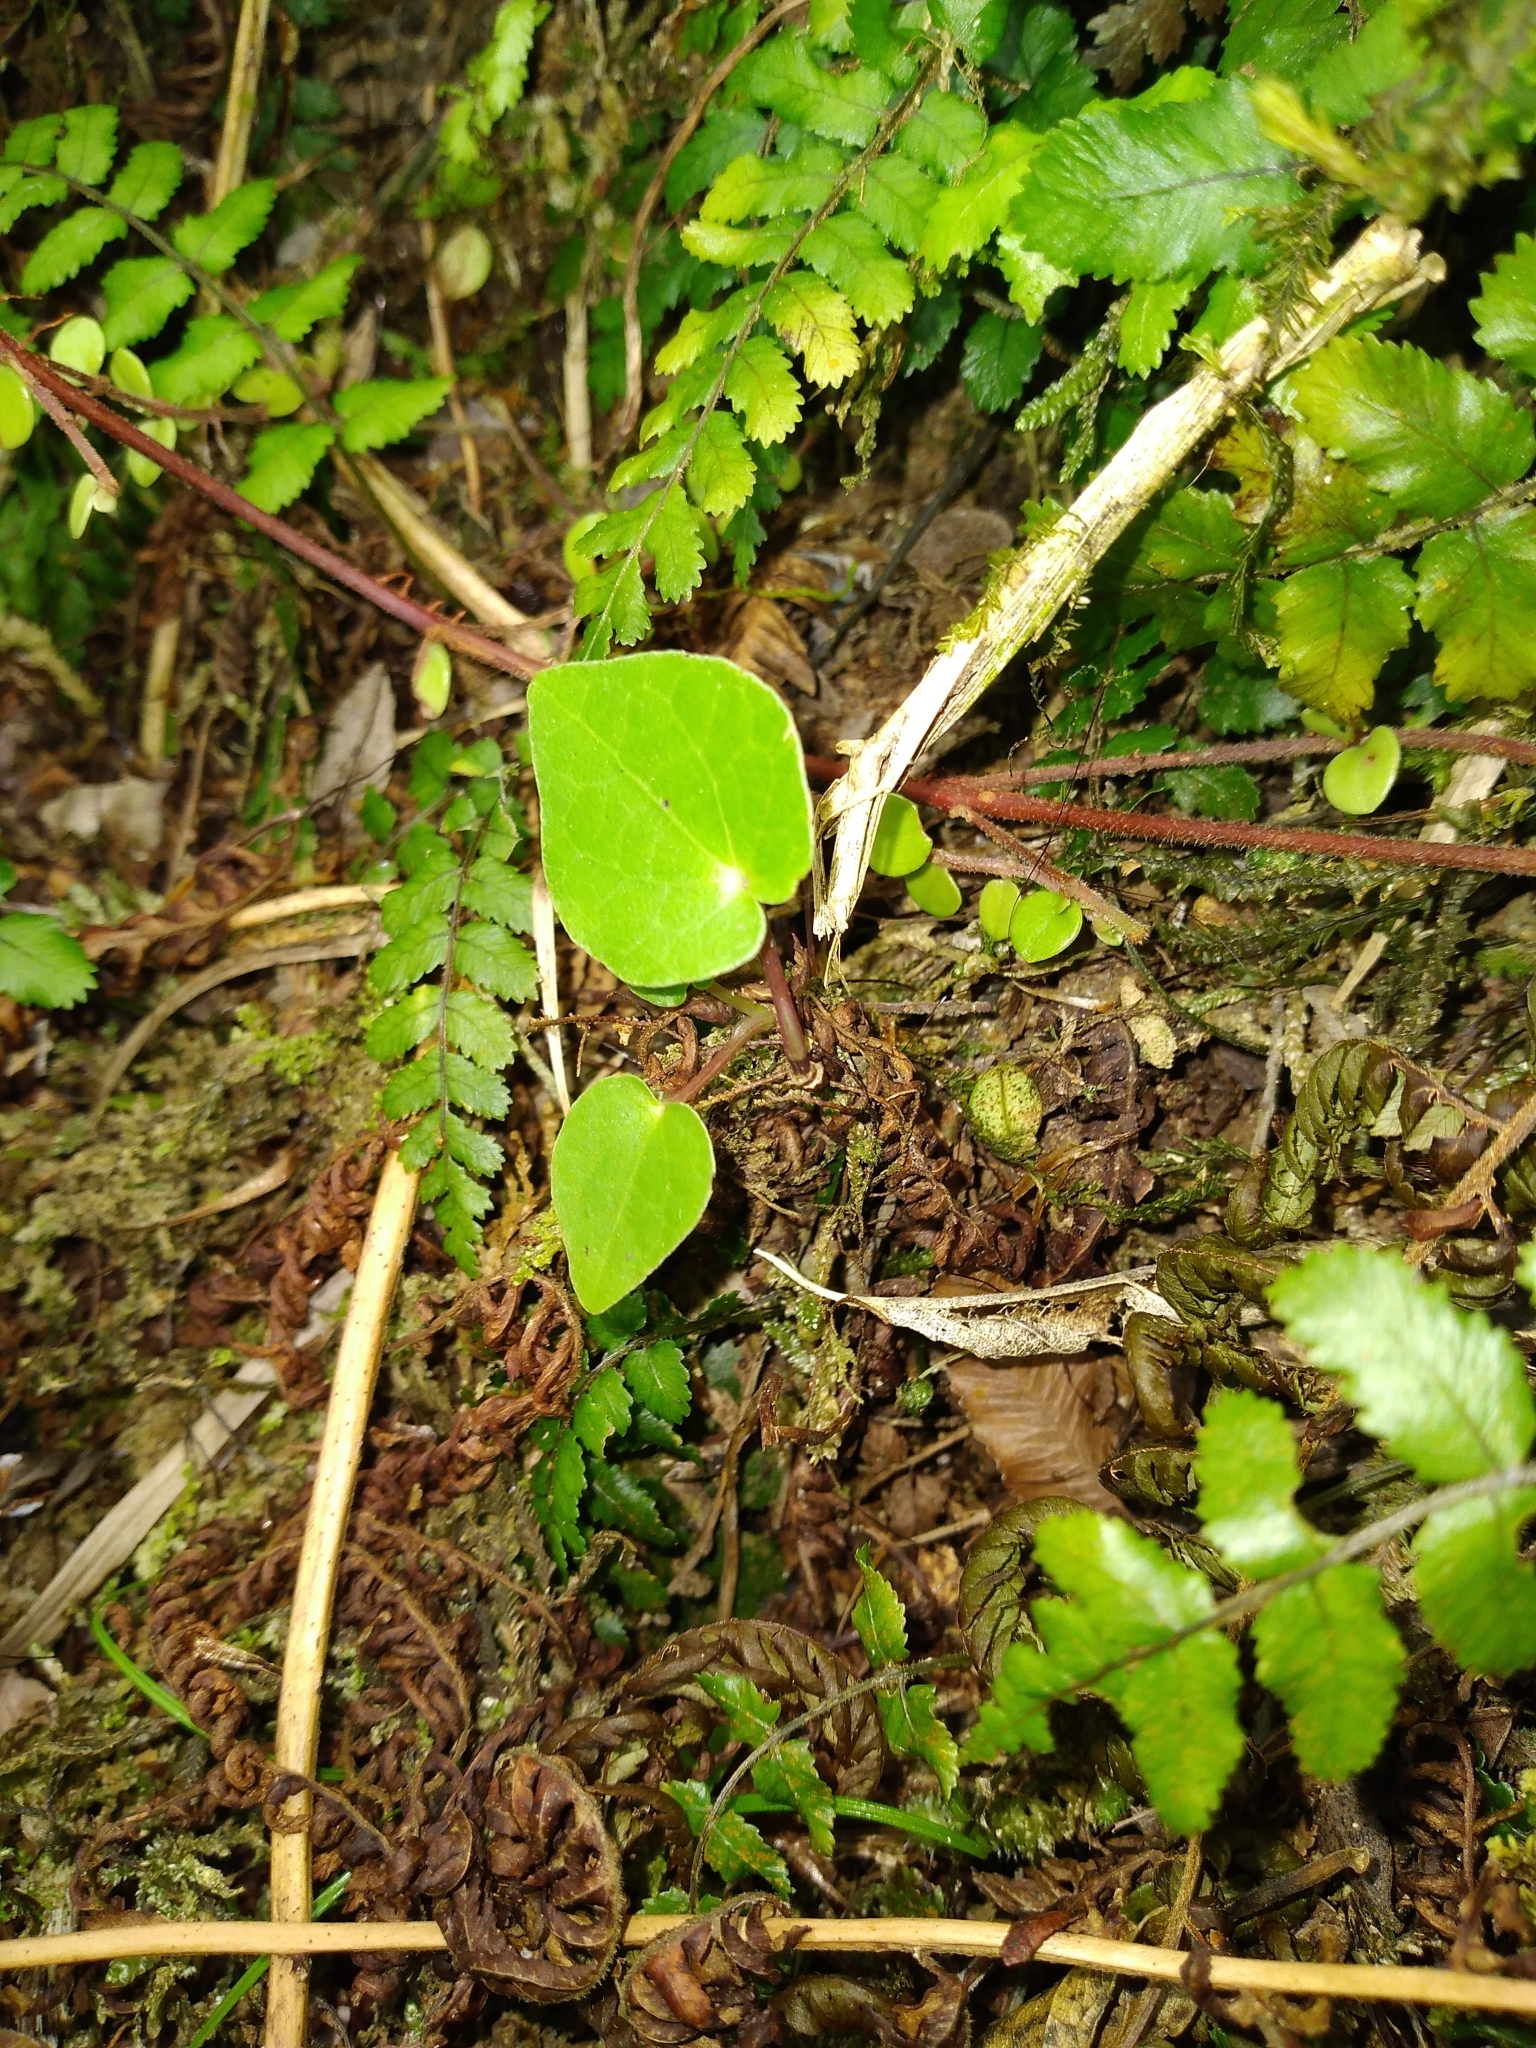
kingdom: Plantae
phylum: Tracheophyta
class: Magnoliopsida
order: Piperales
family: Piperaceae
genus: Macropiper
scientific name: Macropiper excelsum
